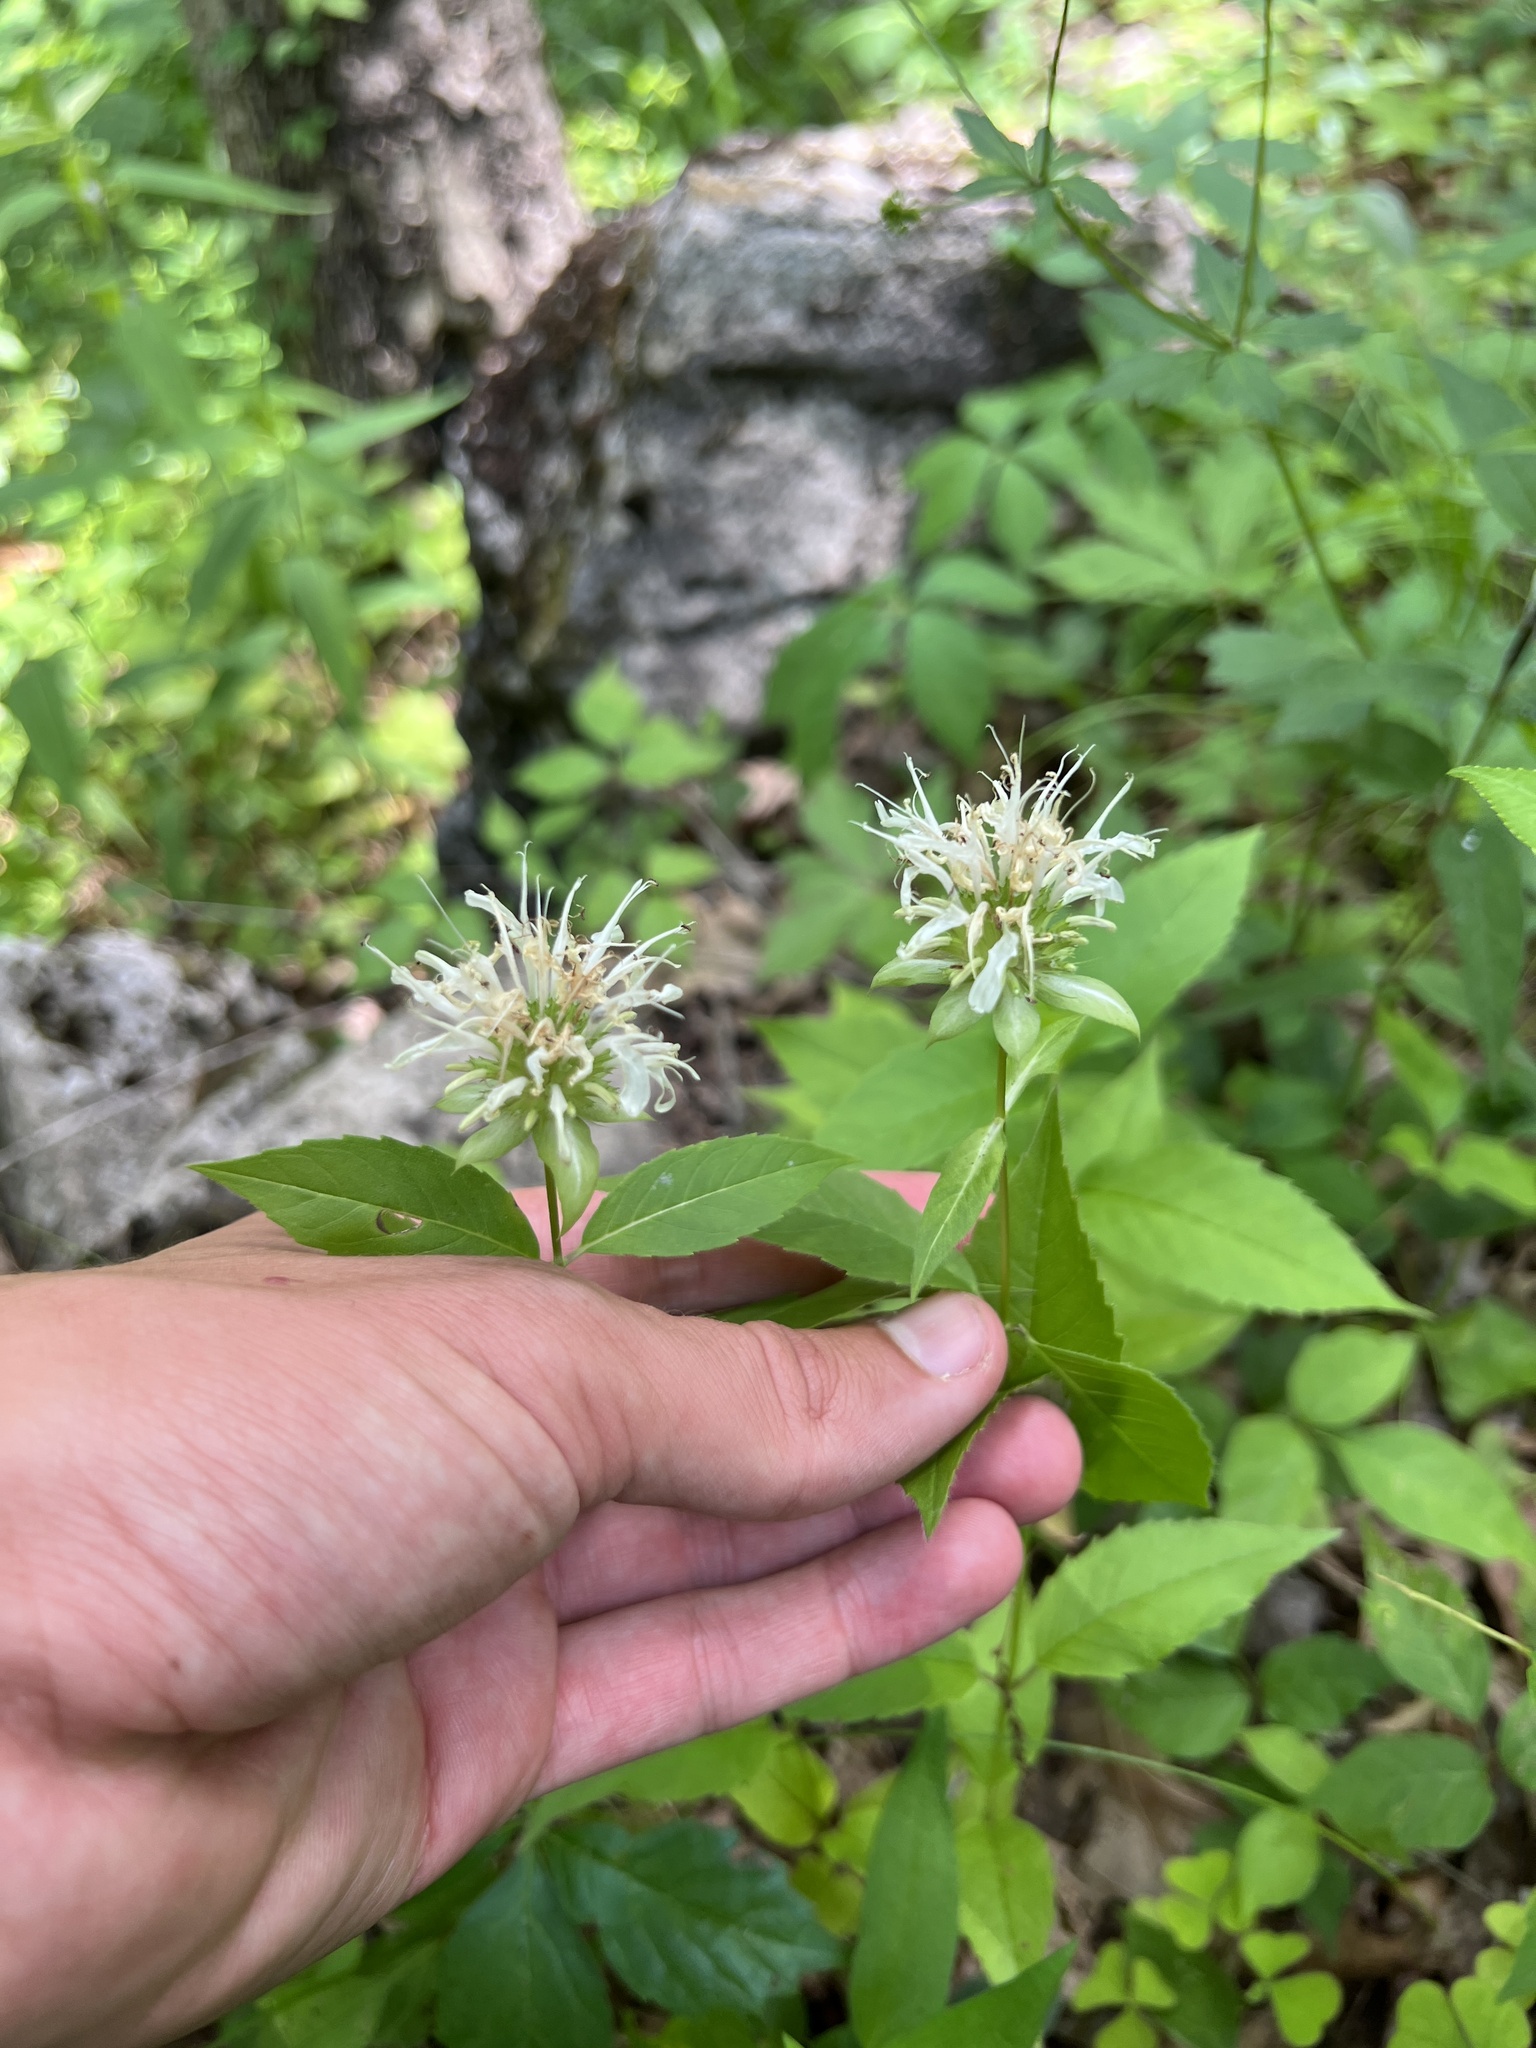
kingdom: Plantae
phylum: Tracheophyta
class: Magnoliopsida
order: Lamiales
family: Lamiaceae
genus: Monarda
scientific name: Monarda clinopodia
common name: Basil beebalm
